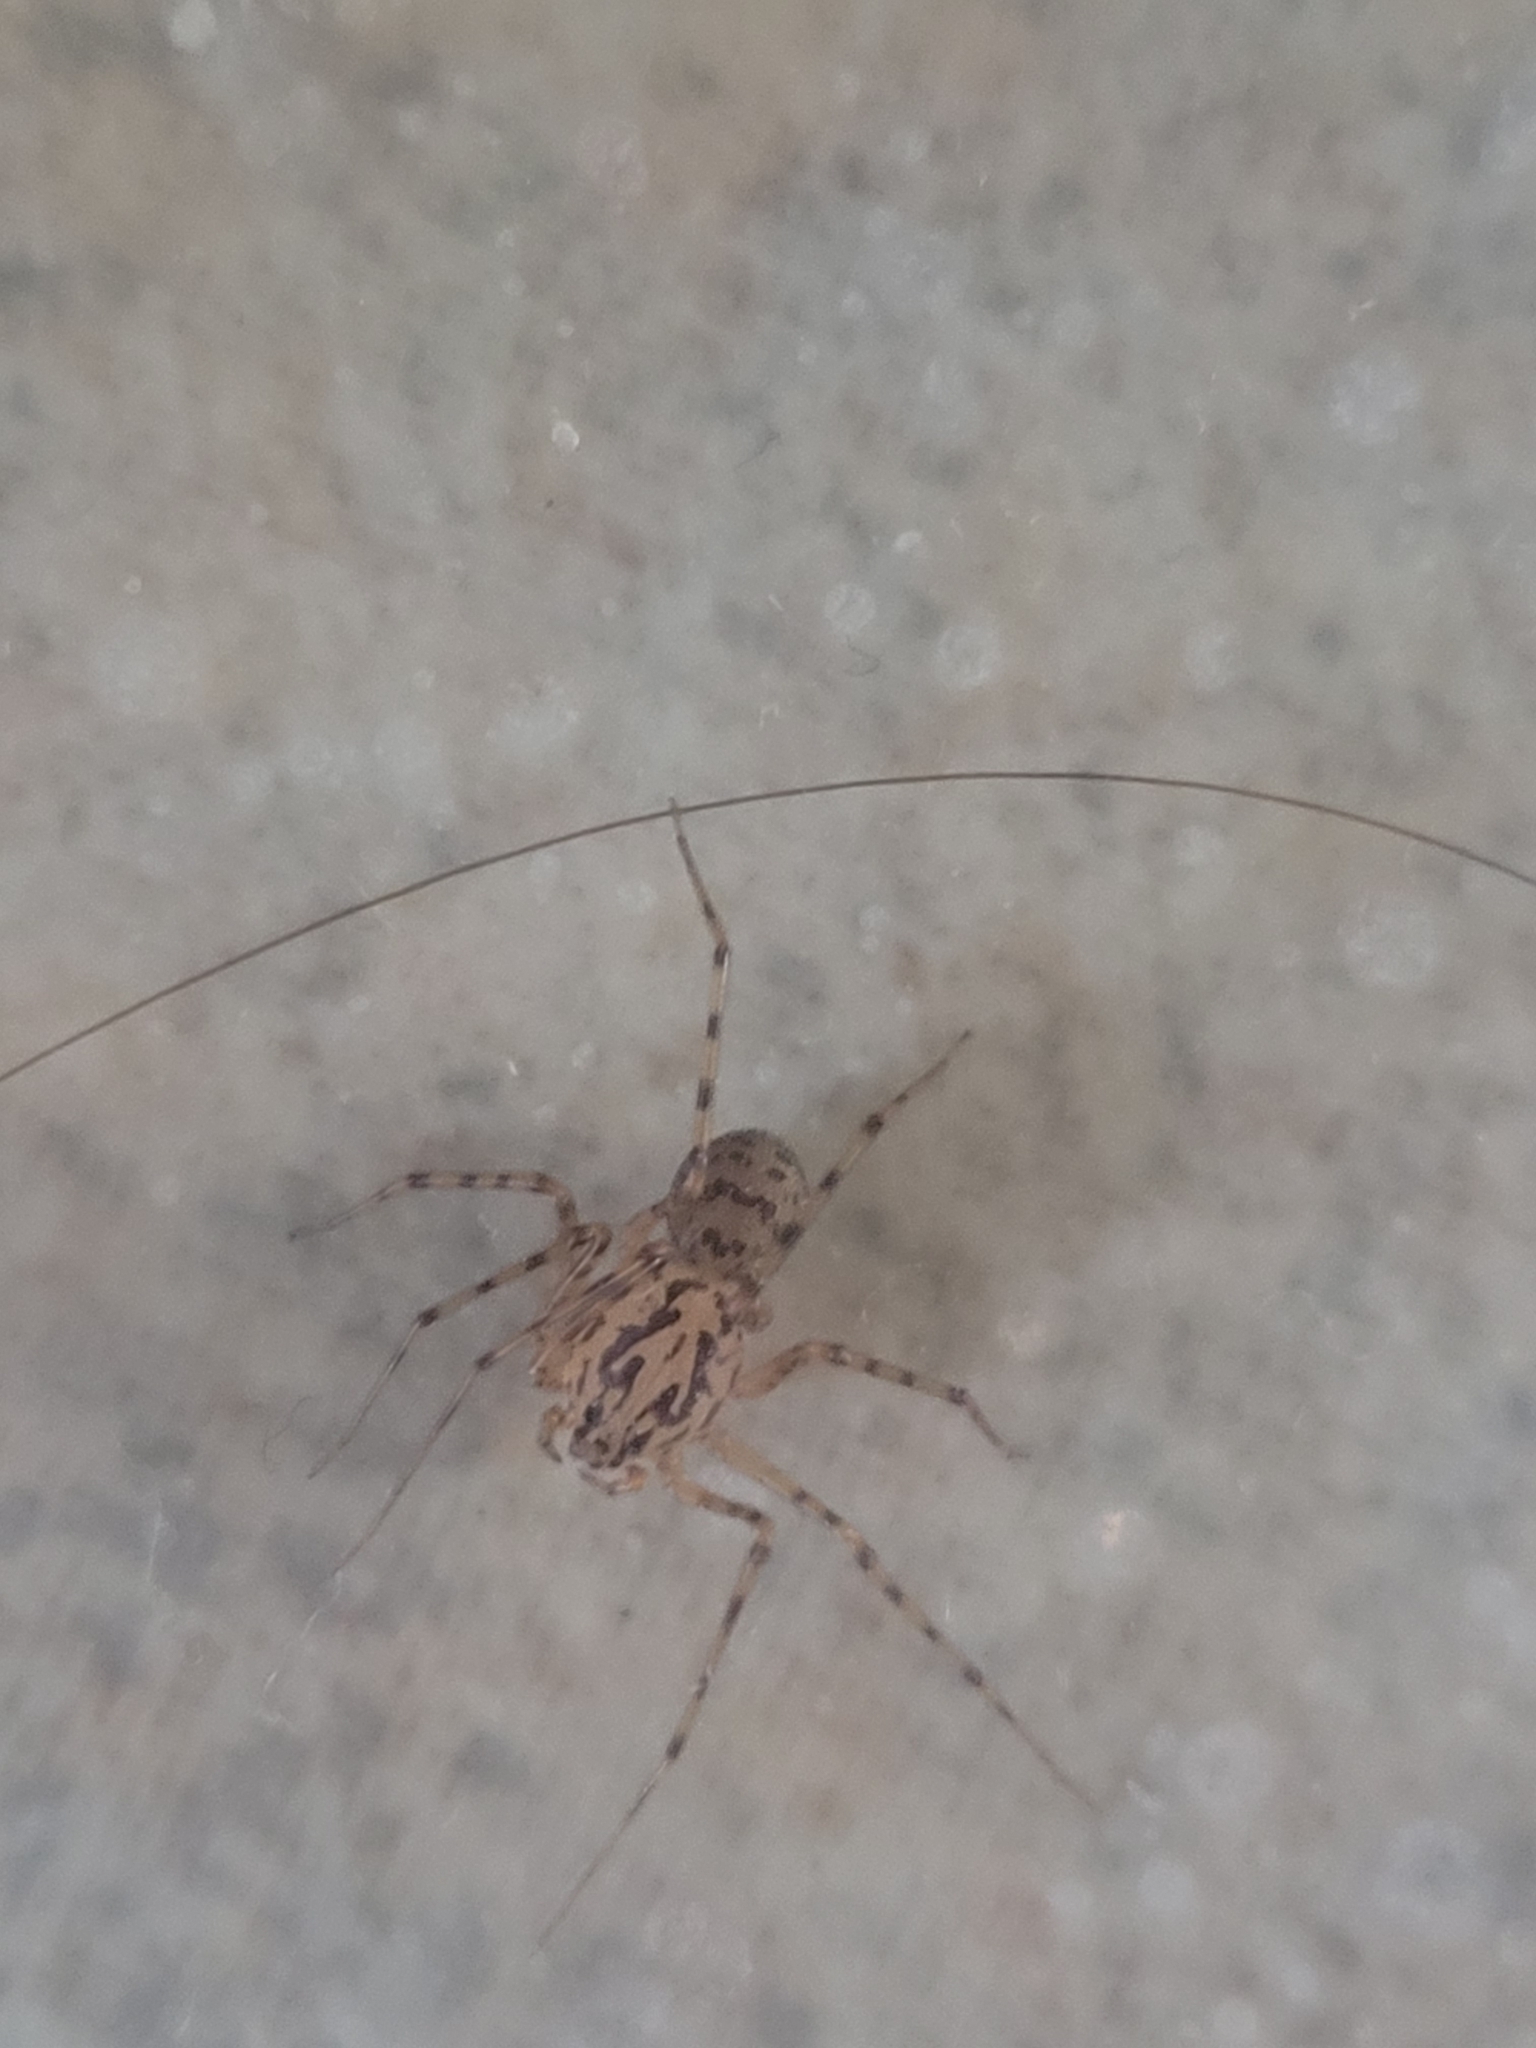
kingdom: Animalia
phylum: Arthropoda
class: Arachnida
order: Araneae
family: Scytodidae
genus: Scytodes
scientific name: Scytodes thoracica
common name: Spitting spider
